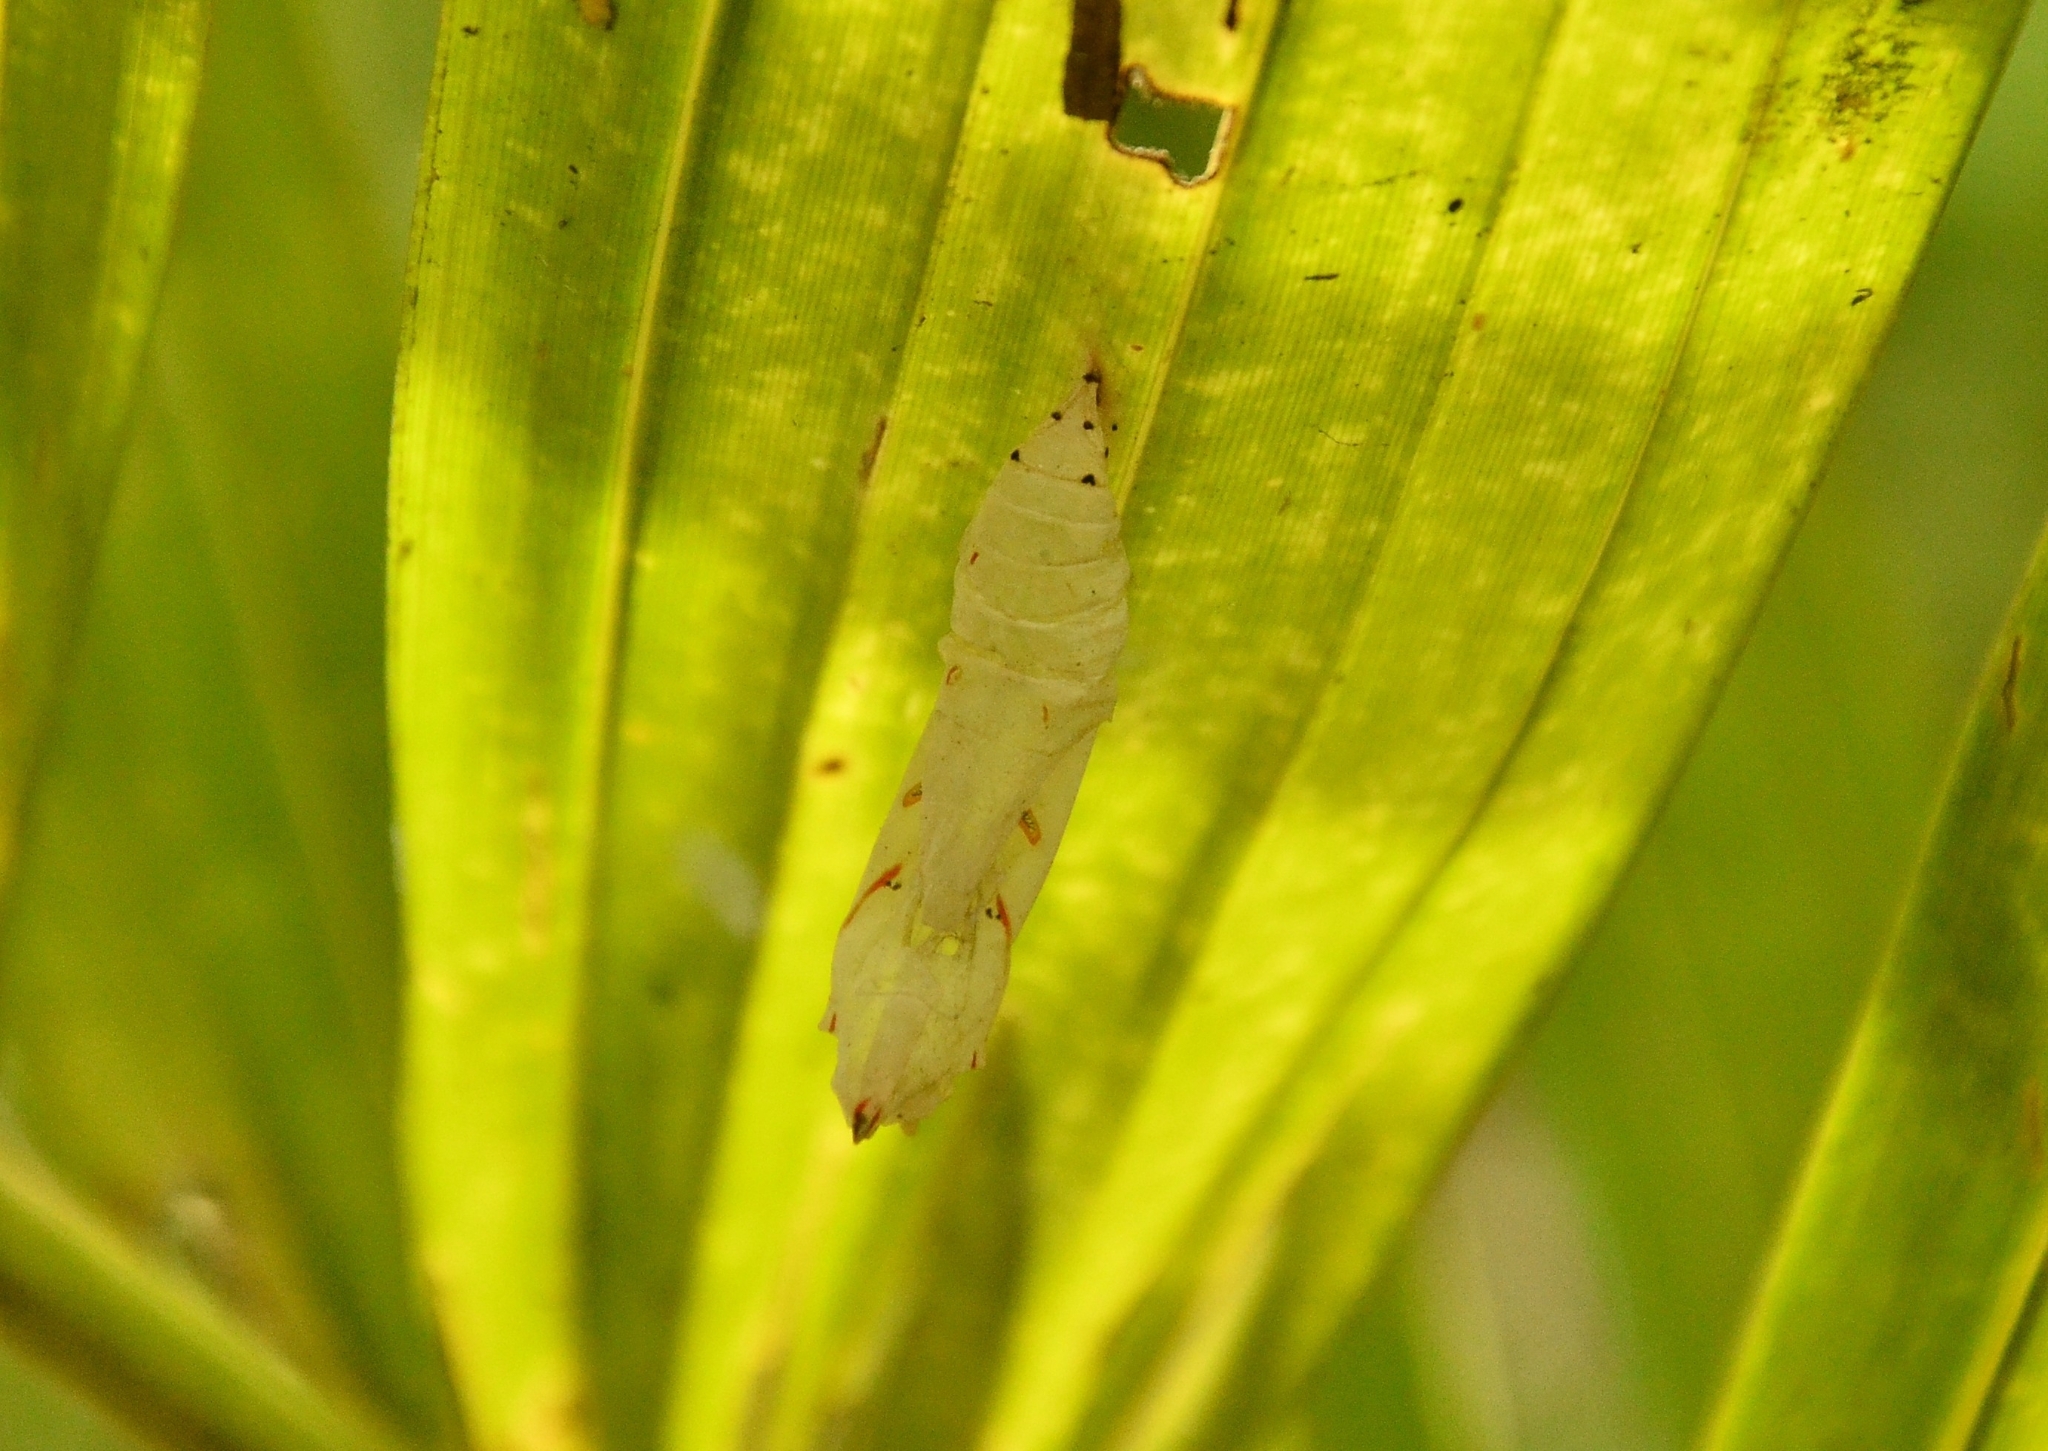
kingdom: Animalia
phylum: Arthropoda
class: Insecta
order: Lepidoptera
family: Nymphalidae
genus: Elymnias
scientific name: Elymnias caudata
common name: Tailed palmfly
